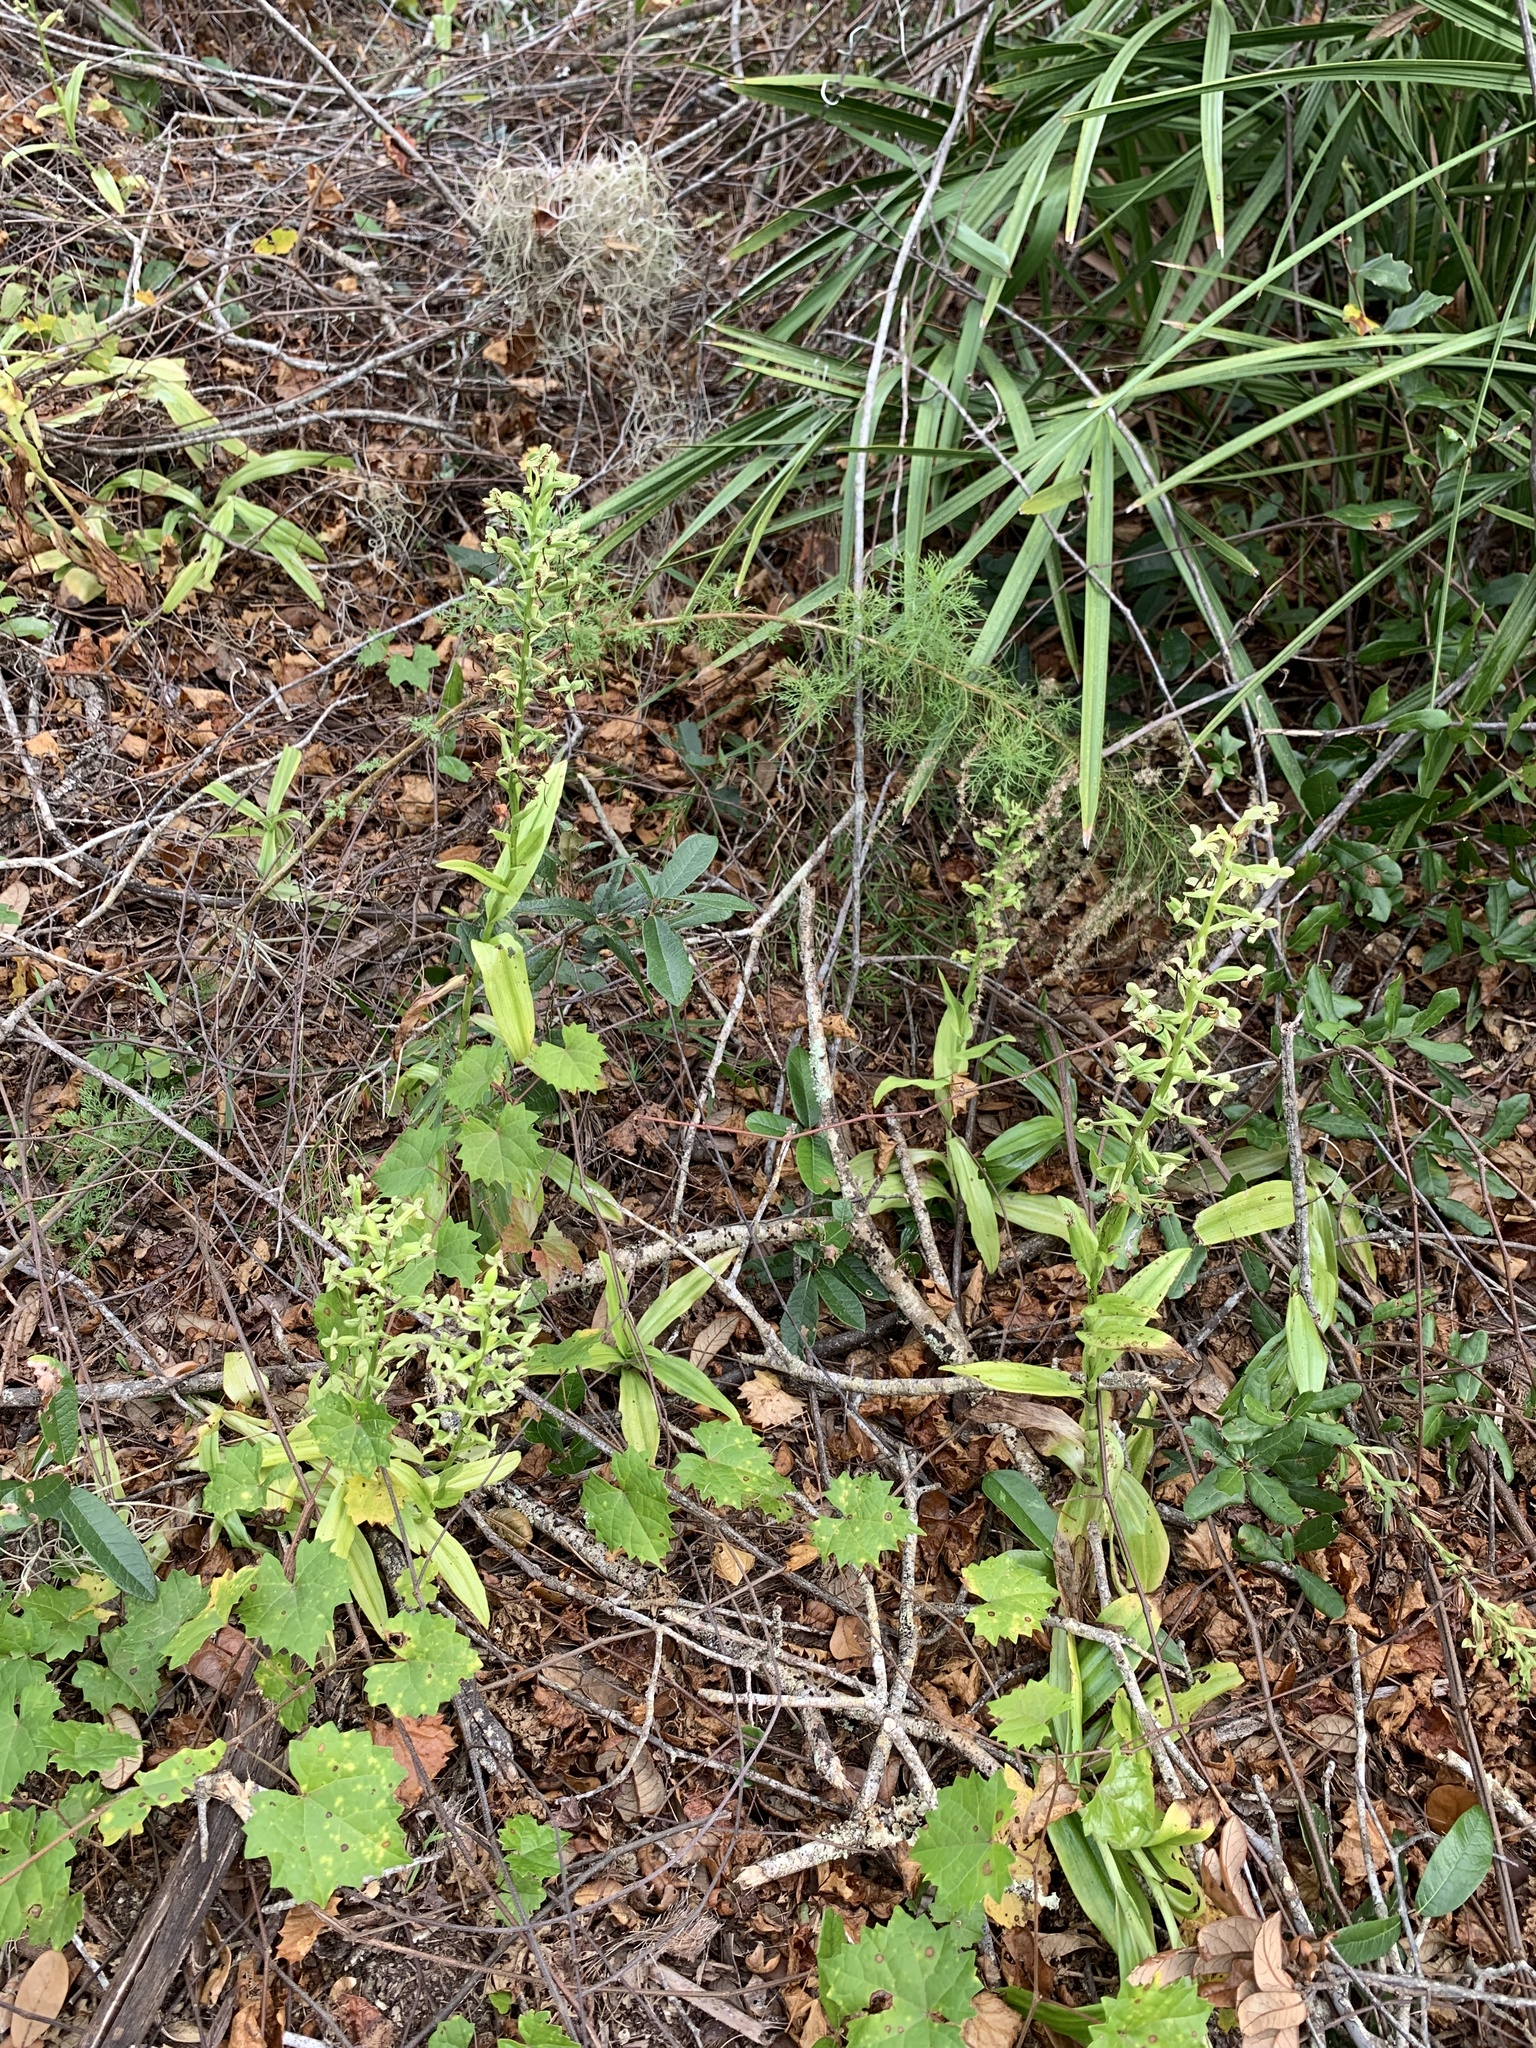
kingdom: Plantae
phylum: Tracheophyta
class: Liliopsida
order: Asparagales
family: Orchidaceae
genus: Habenaria
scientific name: Habenaria floribunda
